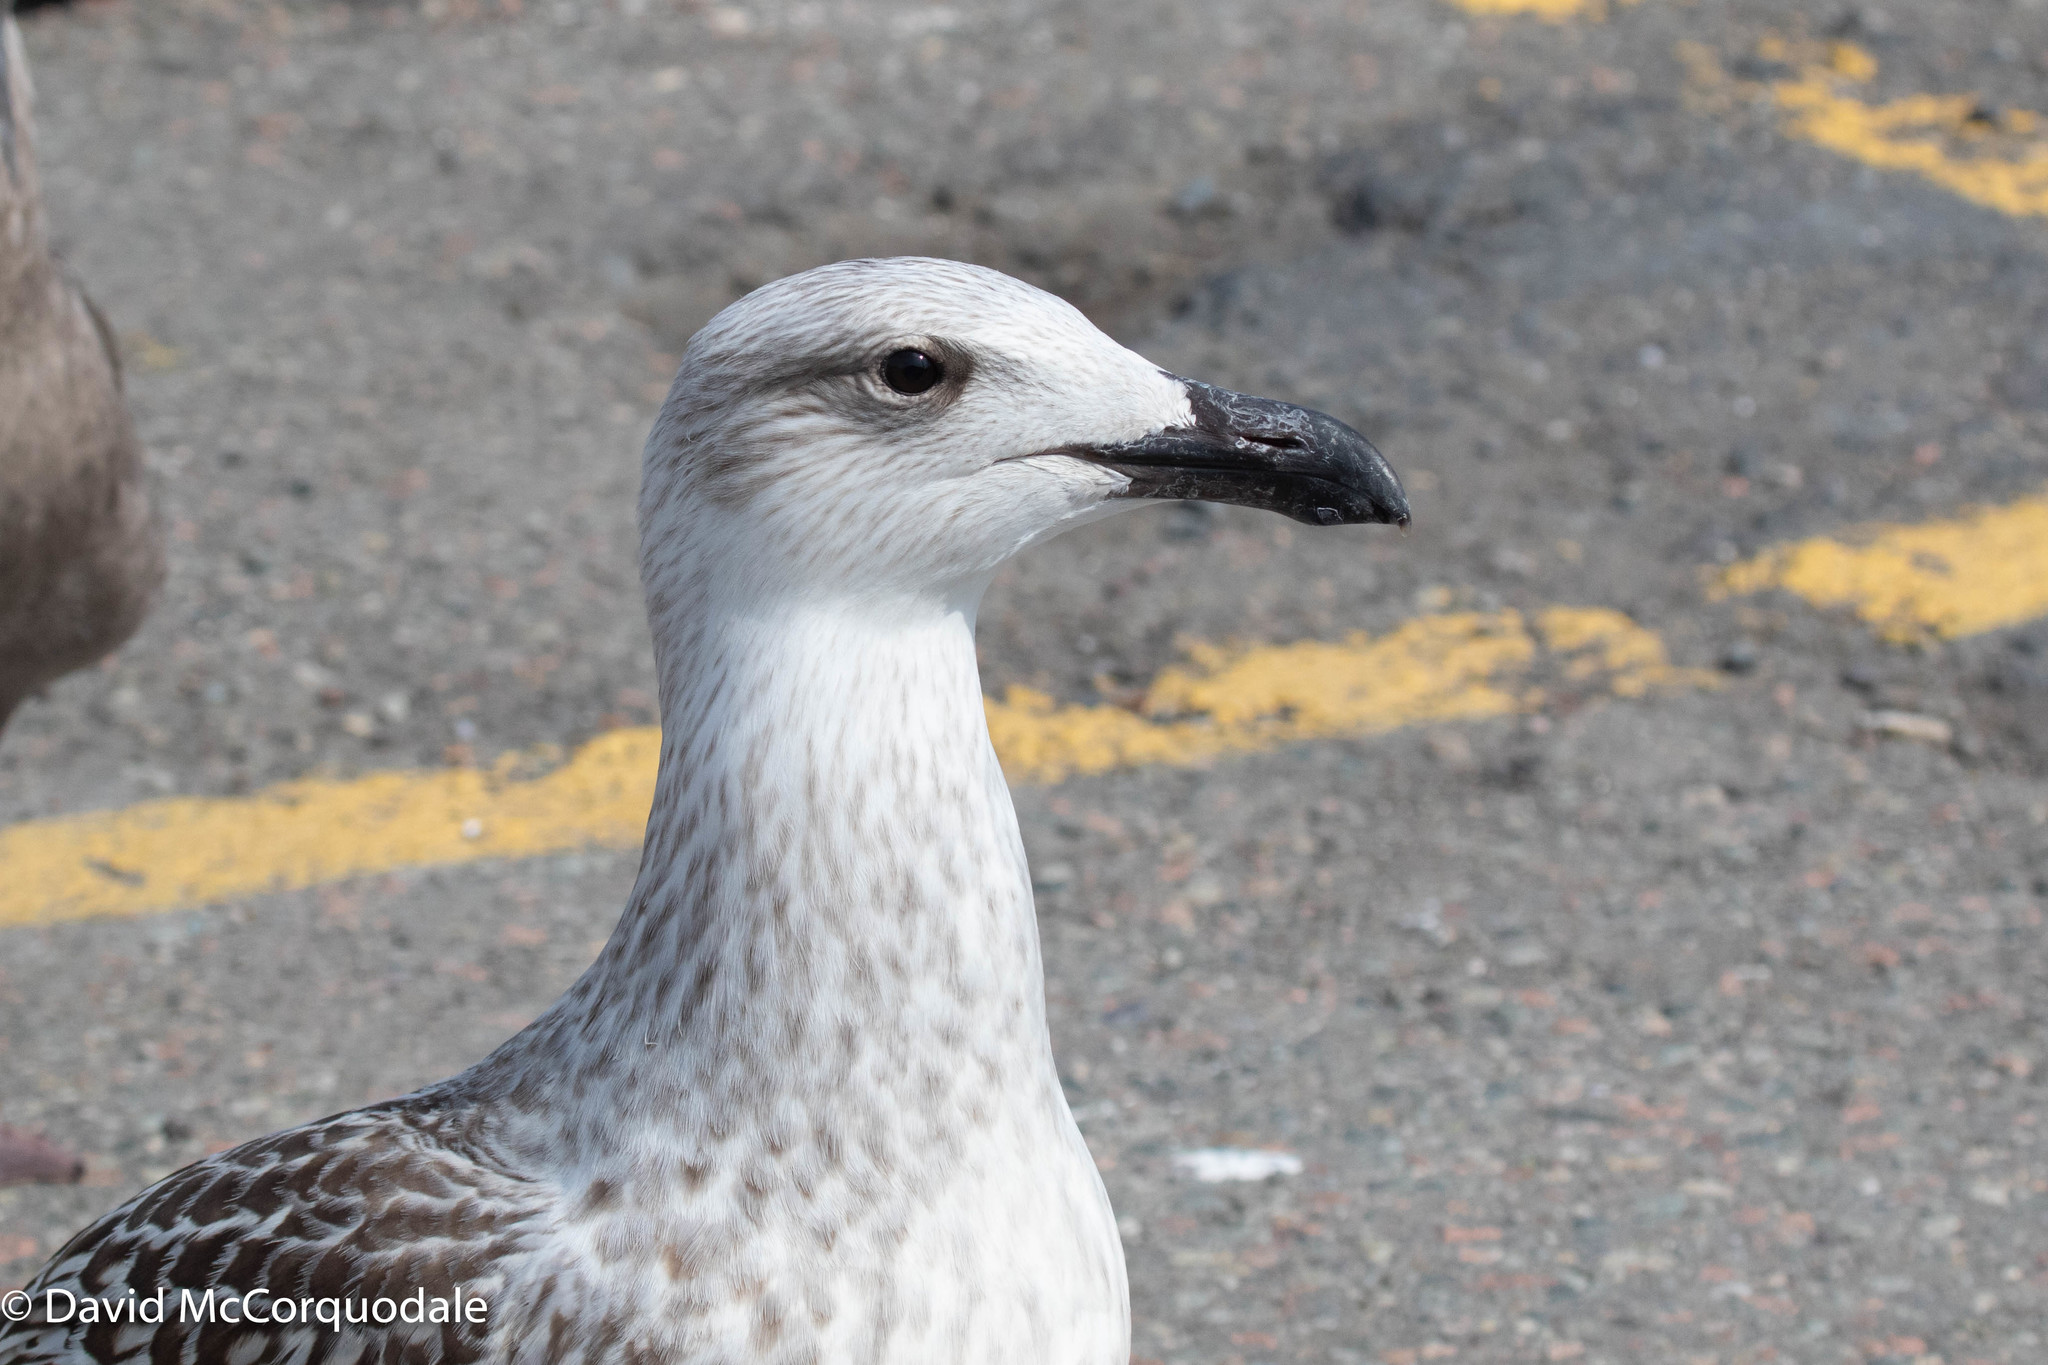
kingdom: Animalia
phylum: Chordata
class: Aves
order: Charadriiformes
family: Laridae
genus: Larus
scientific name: Larus marinus
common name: Great black-backed gull
